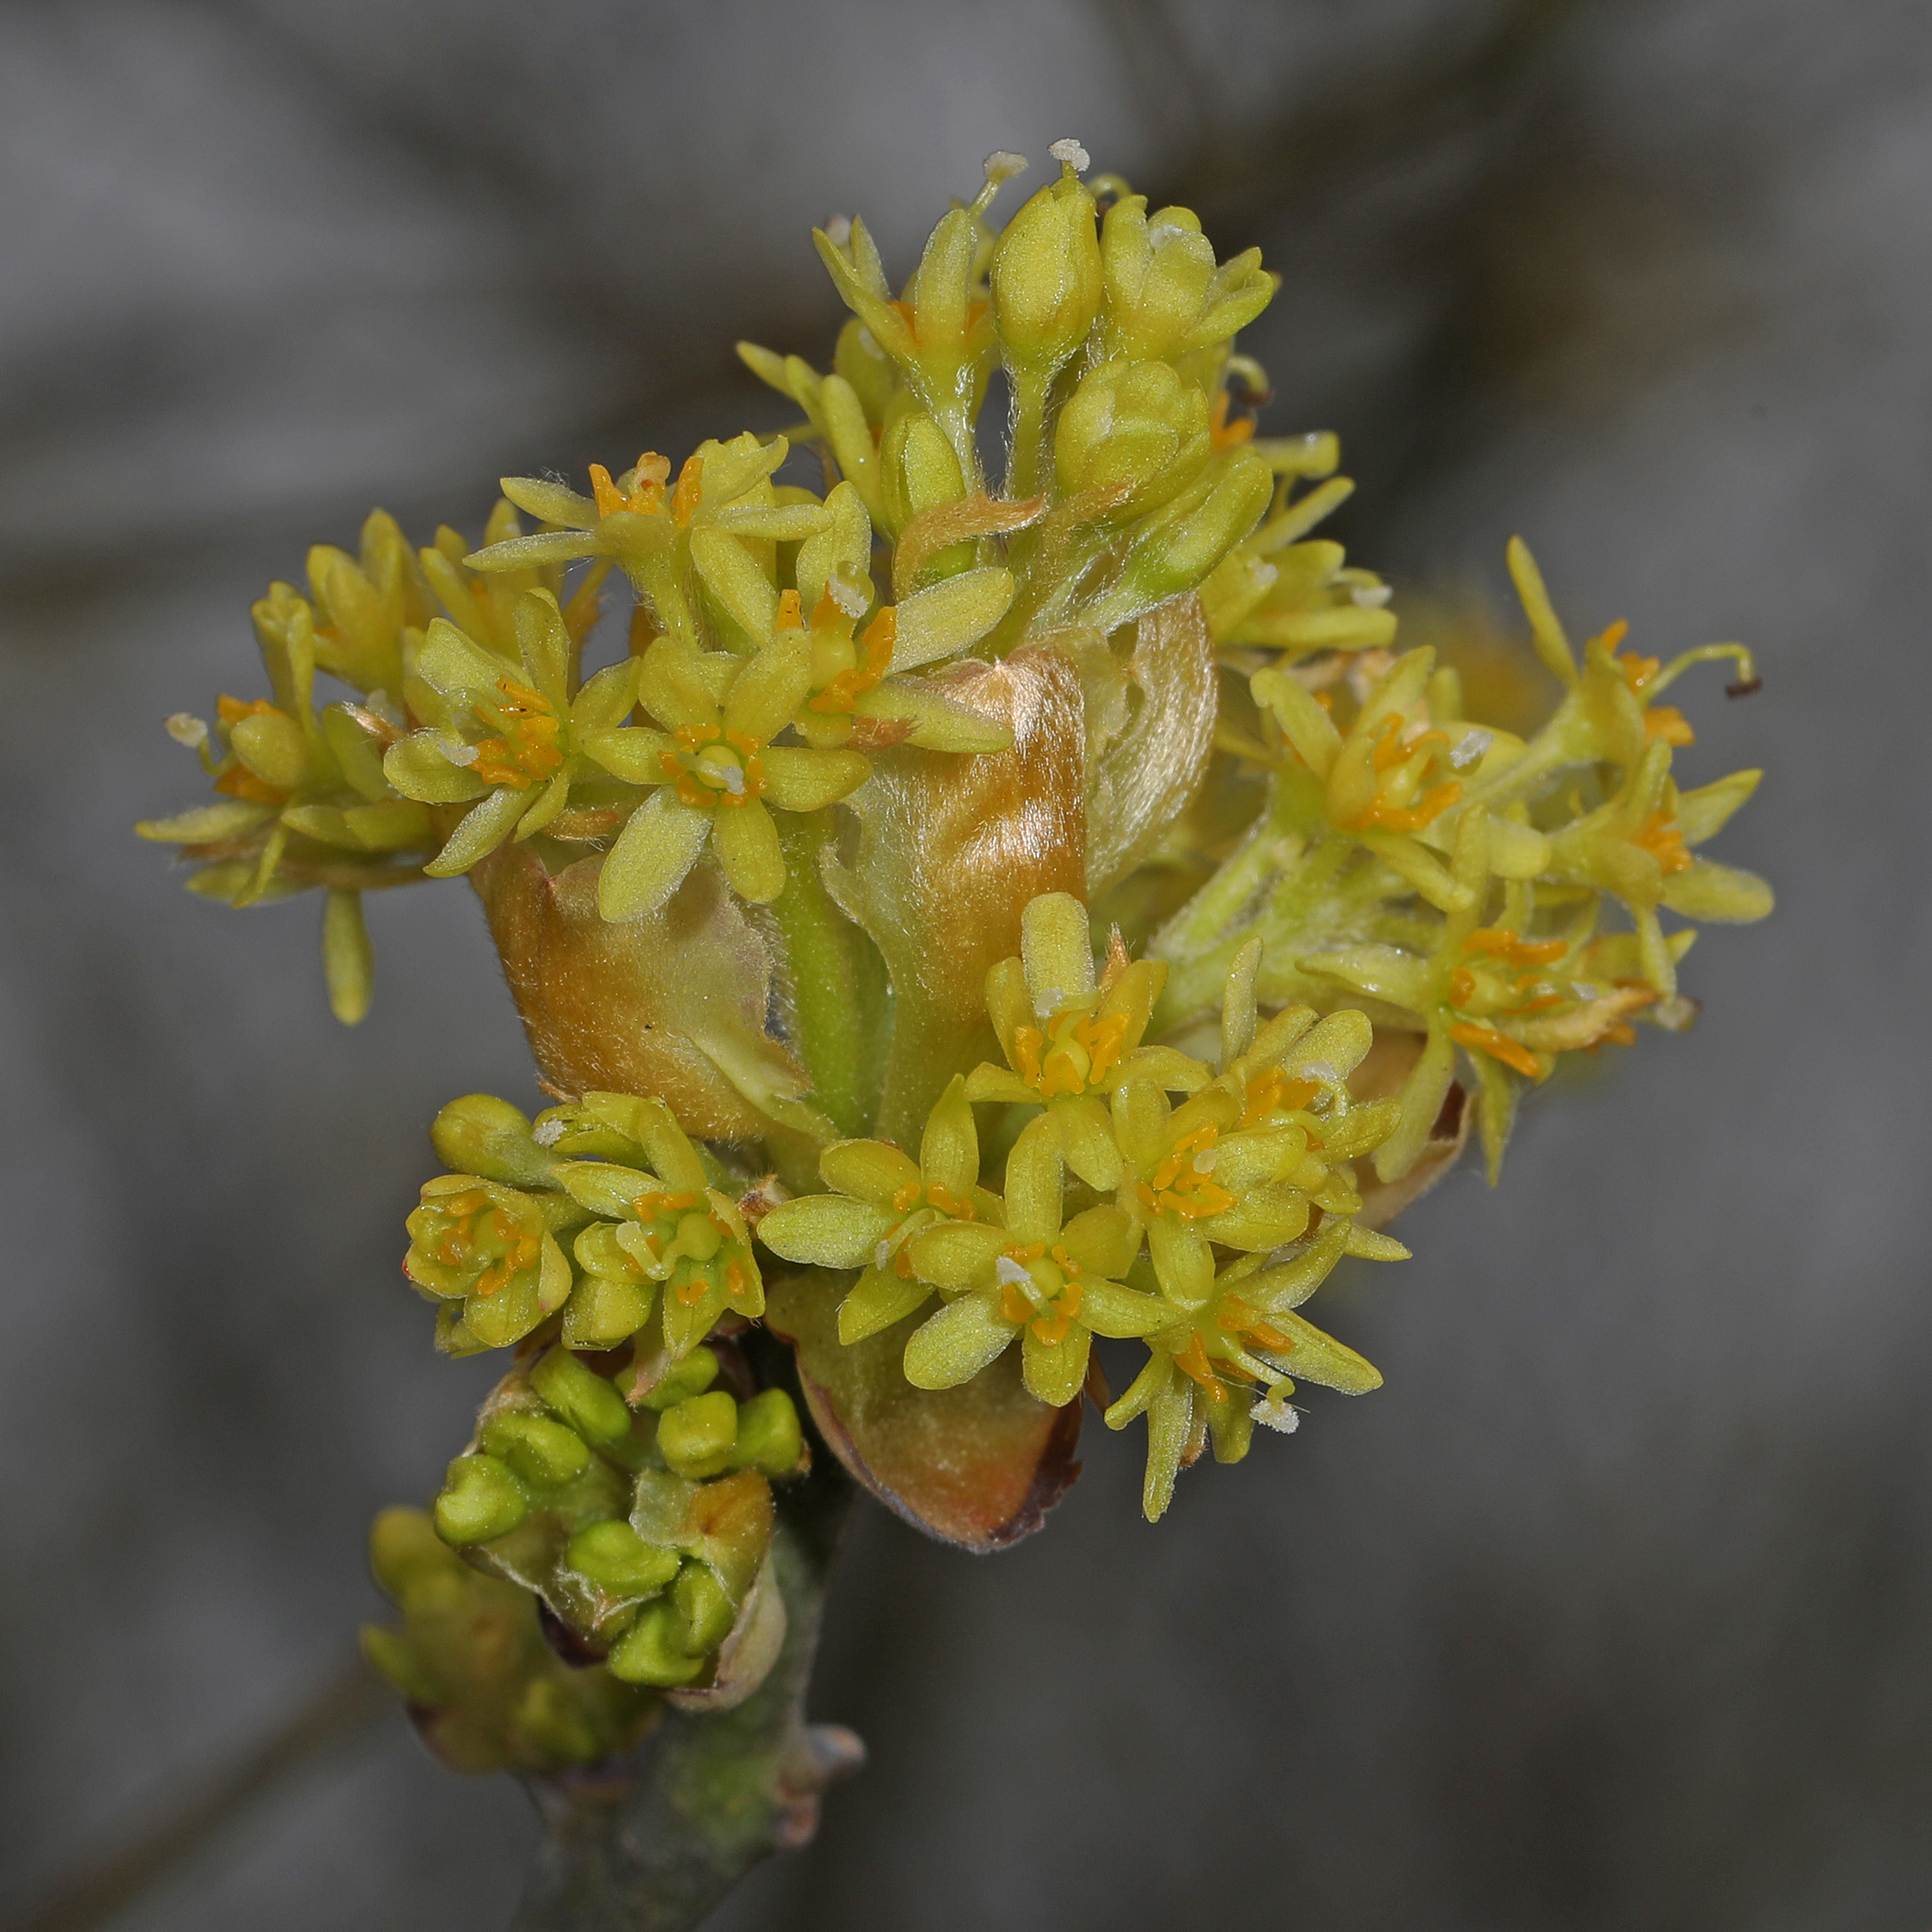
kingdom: Plantae
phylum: Tracheophyta
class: Magnoliopsida
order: Laurales
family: Lauraceae
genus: Sassafras
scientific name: Sassafras albidum
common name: Sassafras
